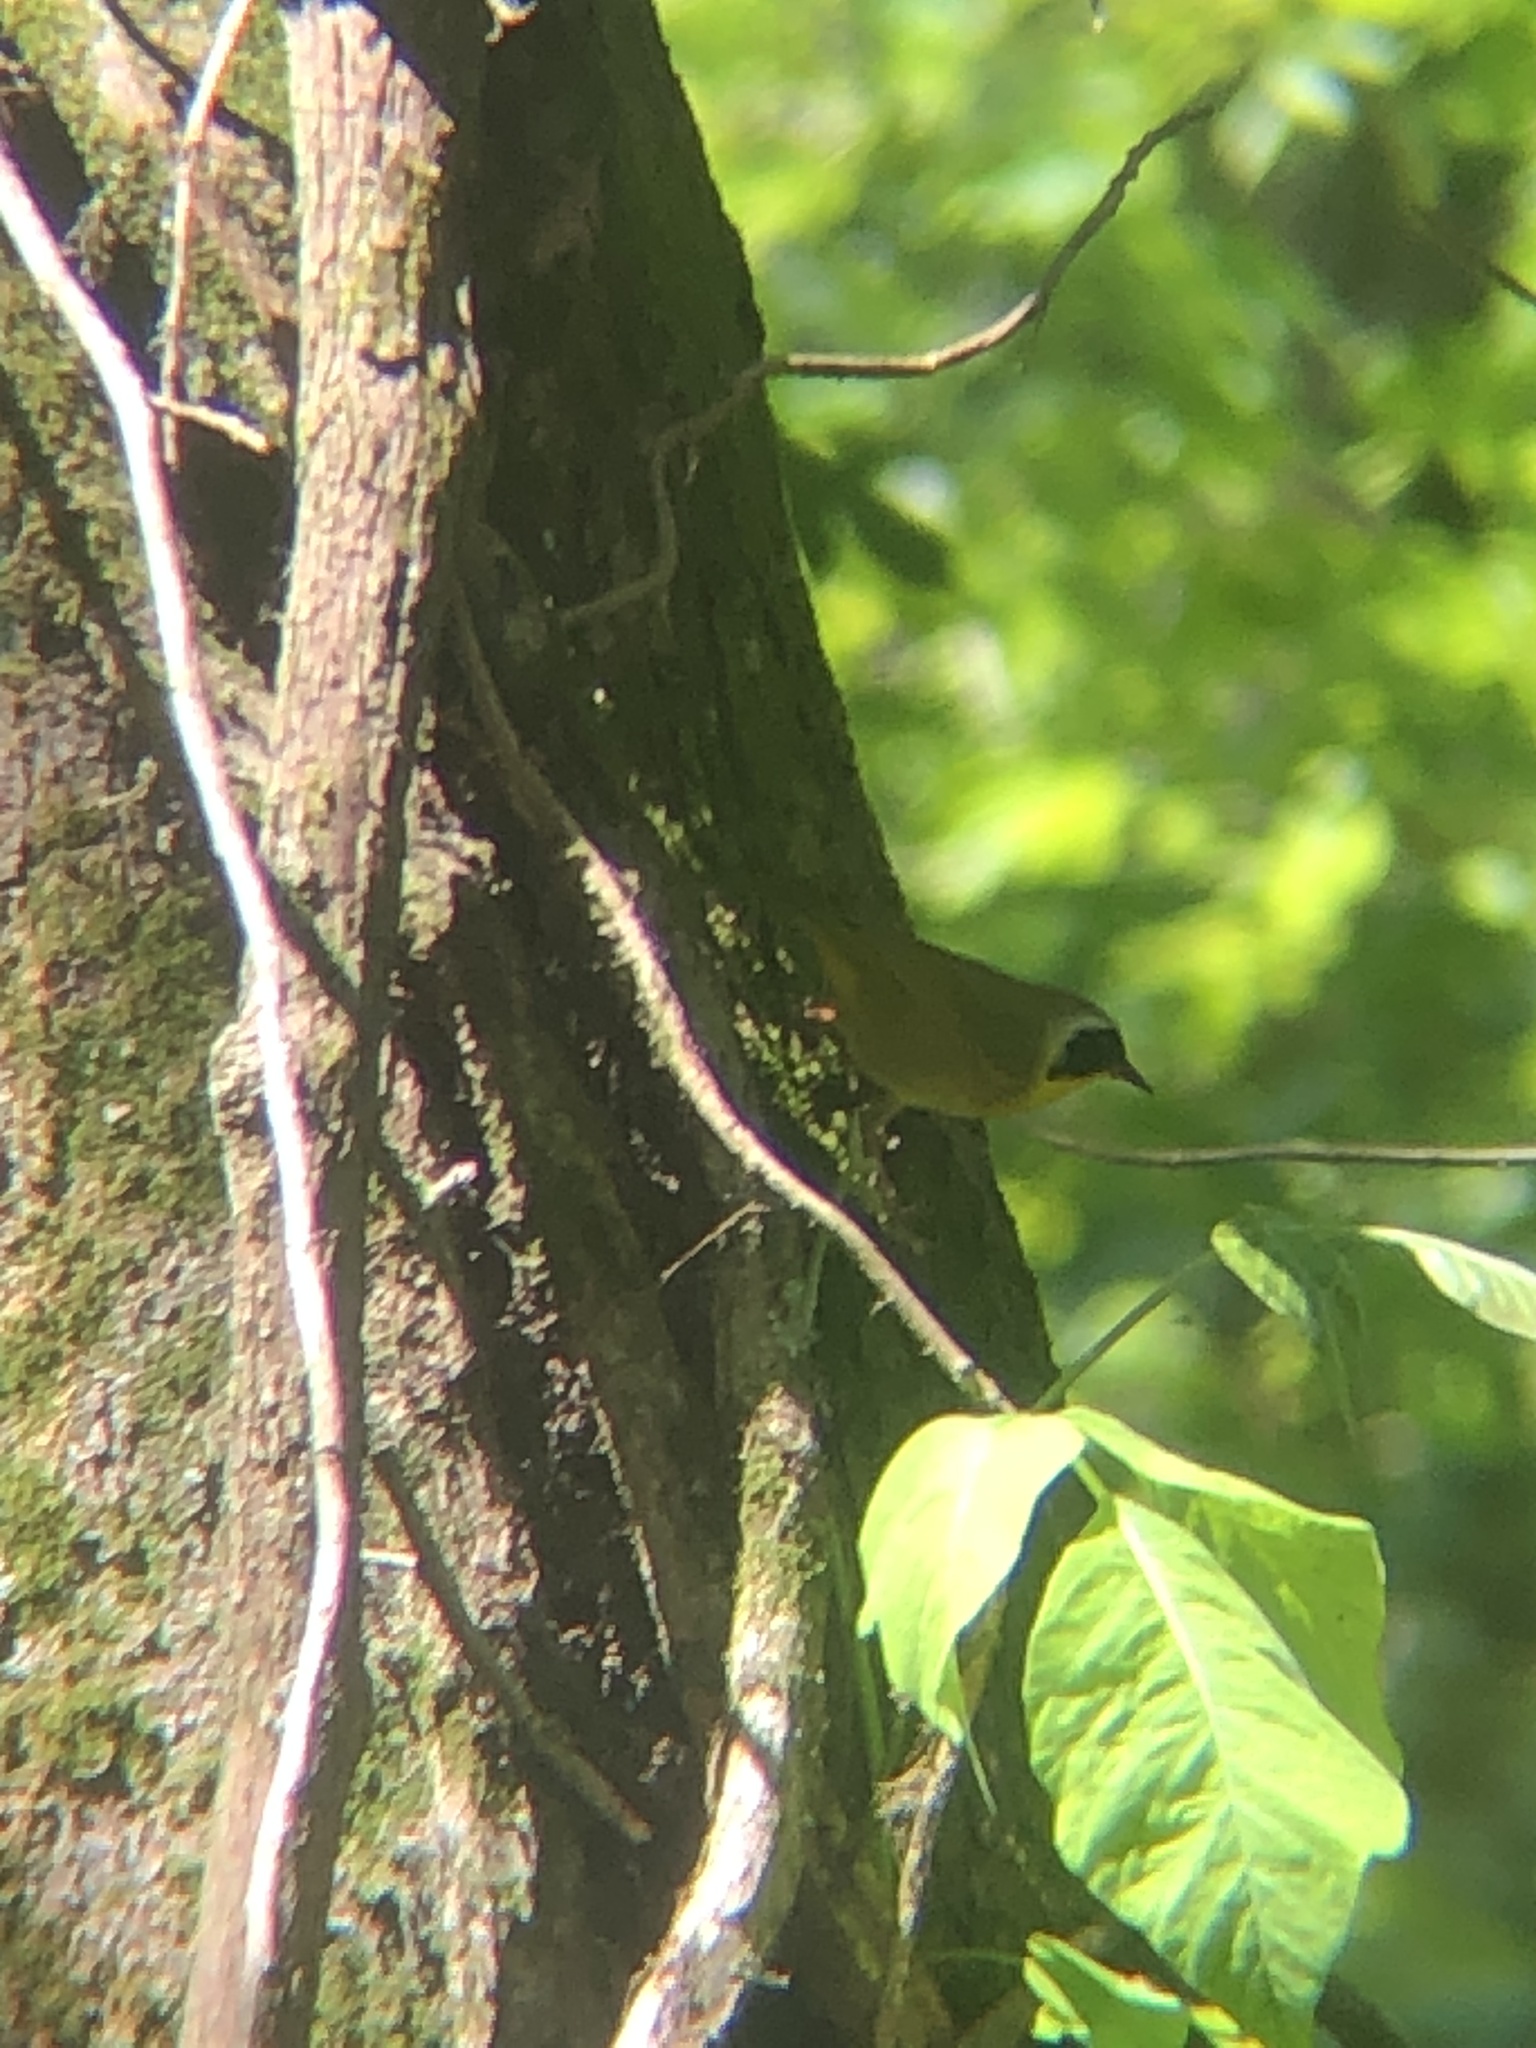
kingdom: Animalia
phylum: Chordata
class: Aves
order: Passeriformes
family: Parulidae
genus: Geothlypis
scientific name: Geothlypis trichas
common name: Common yellowthroat
